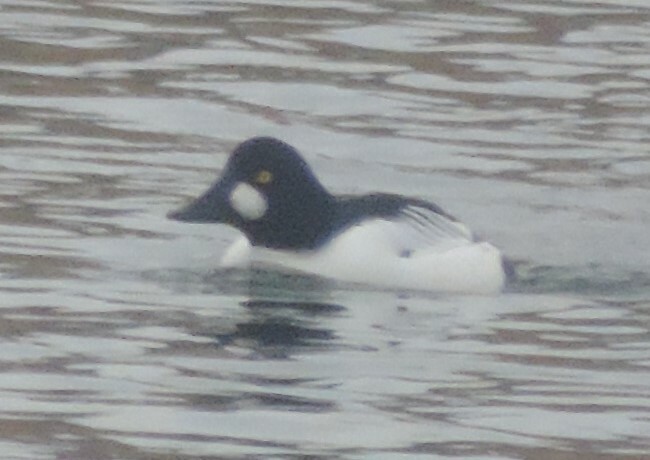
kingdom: Animalia
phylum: Chordata
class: Aves
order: Anseriformes
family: Anatidae
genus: Bucephala
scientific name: Bucephala clangula
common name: Common goldeneye
